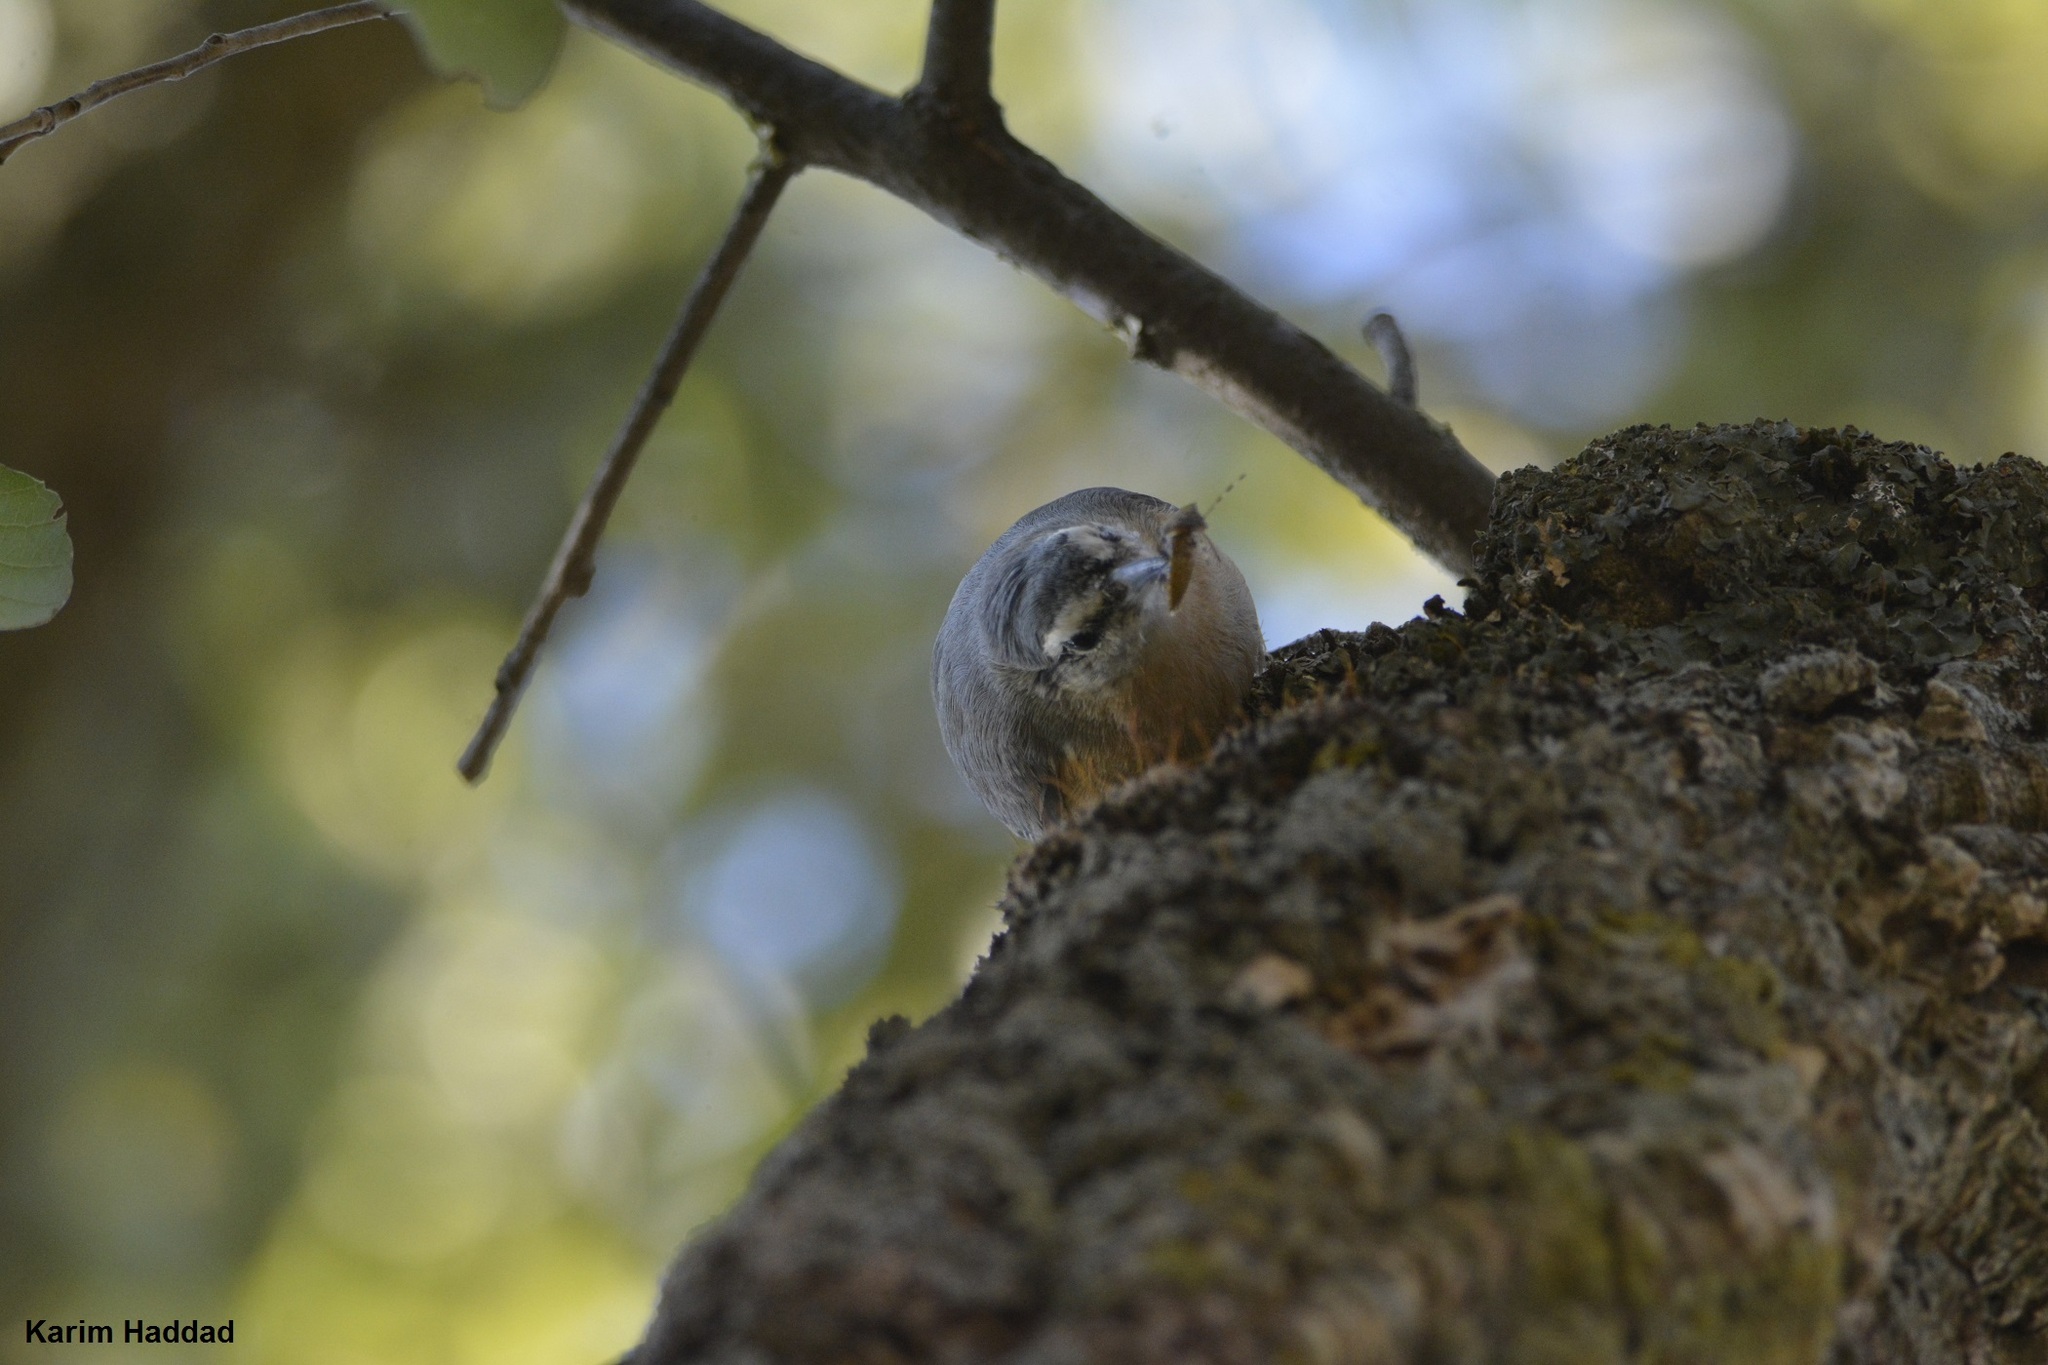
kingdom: Animalia
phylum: Chordata
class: Aves
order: Passeriformes
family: Sittidae
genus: Sitta
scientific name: Sitta ledanti
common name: Algerian nuthatch
